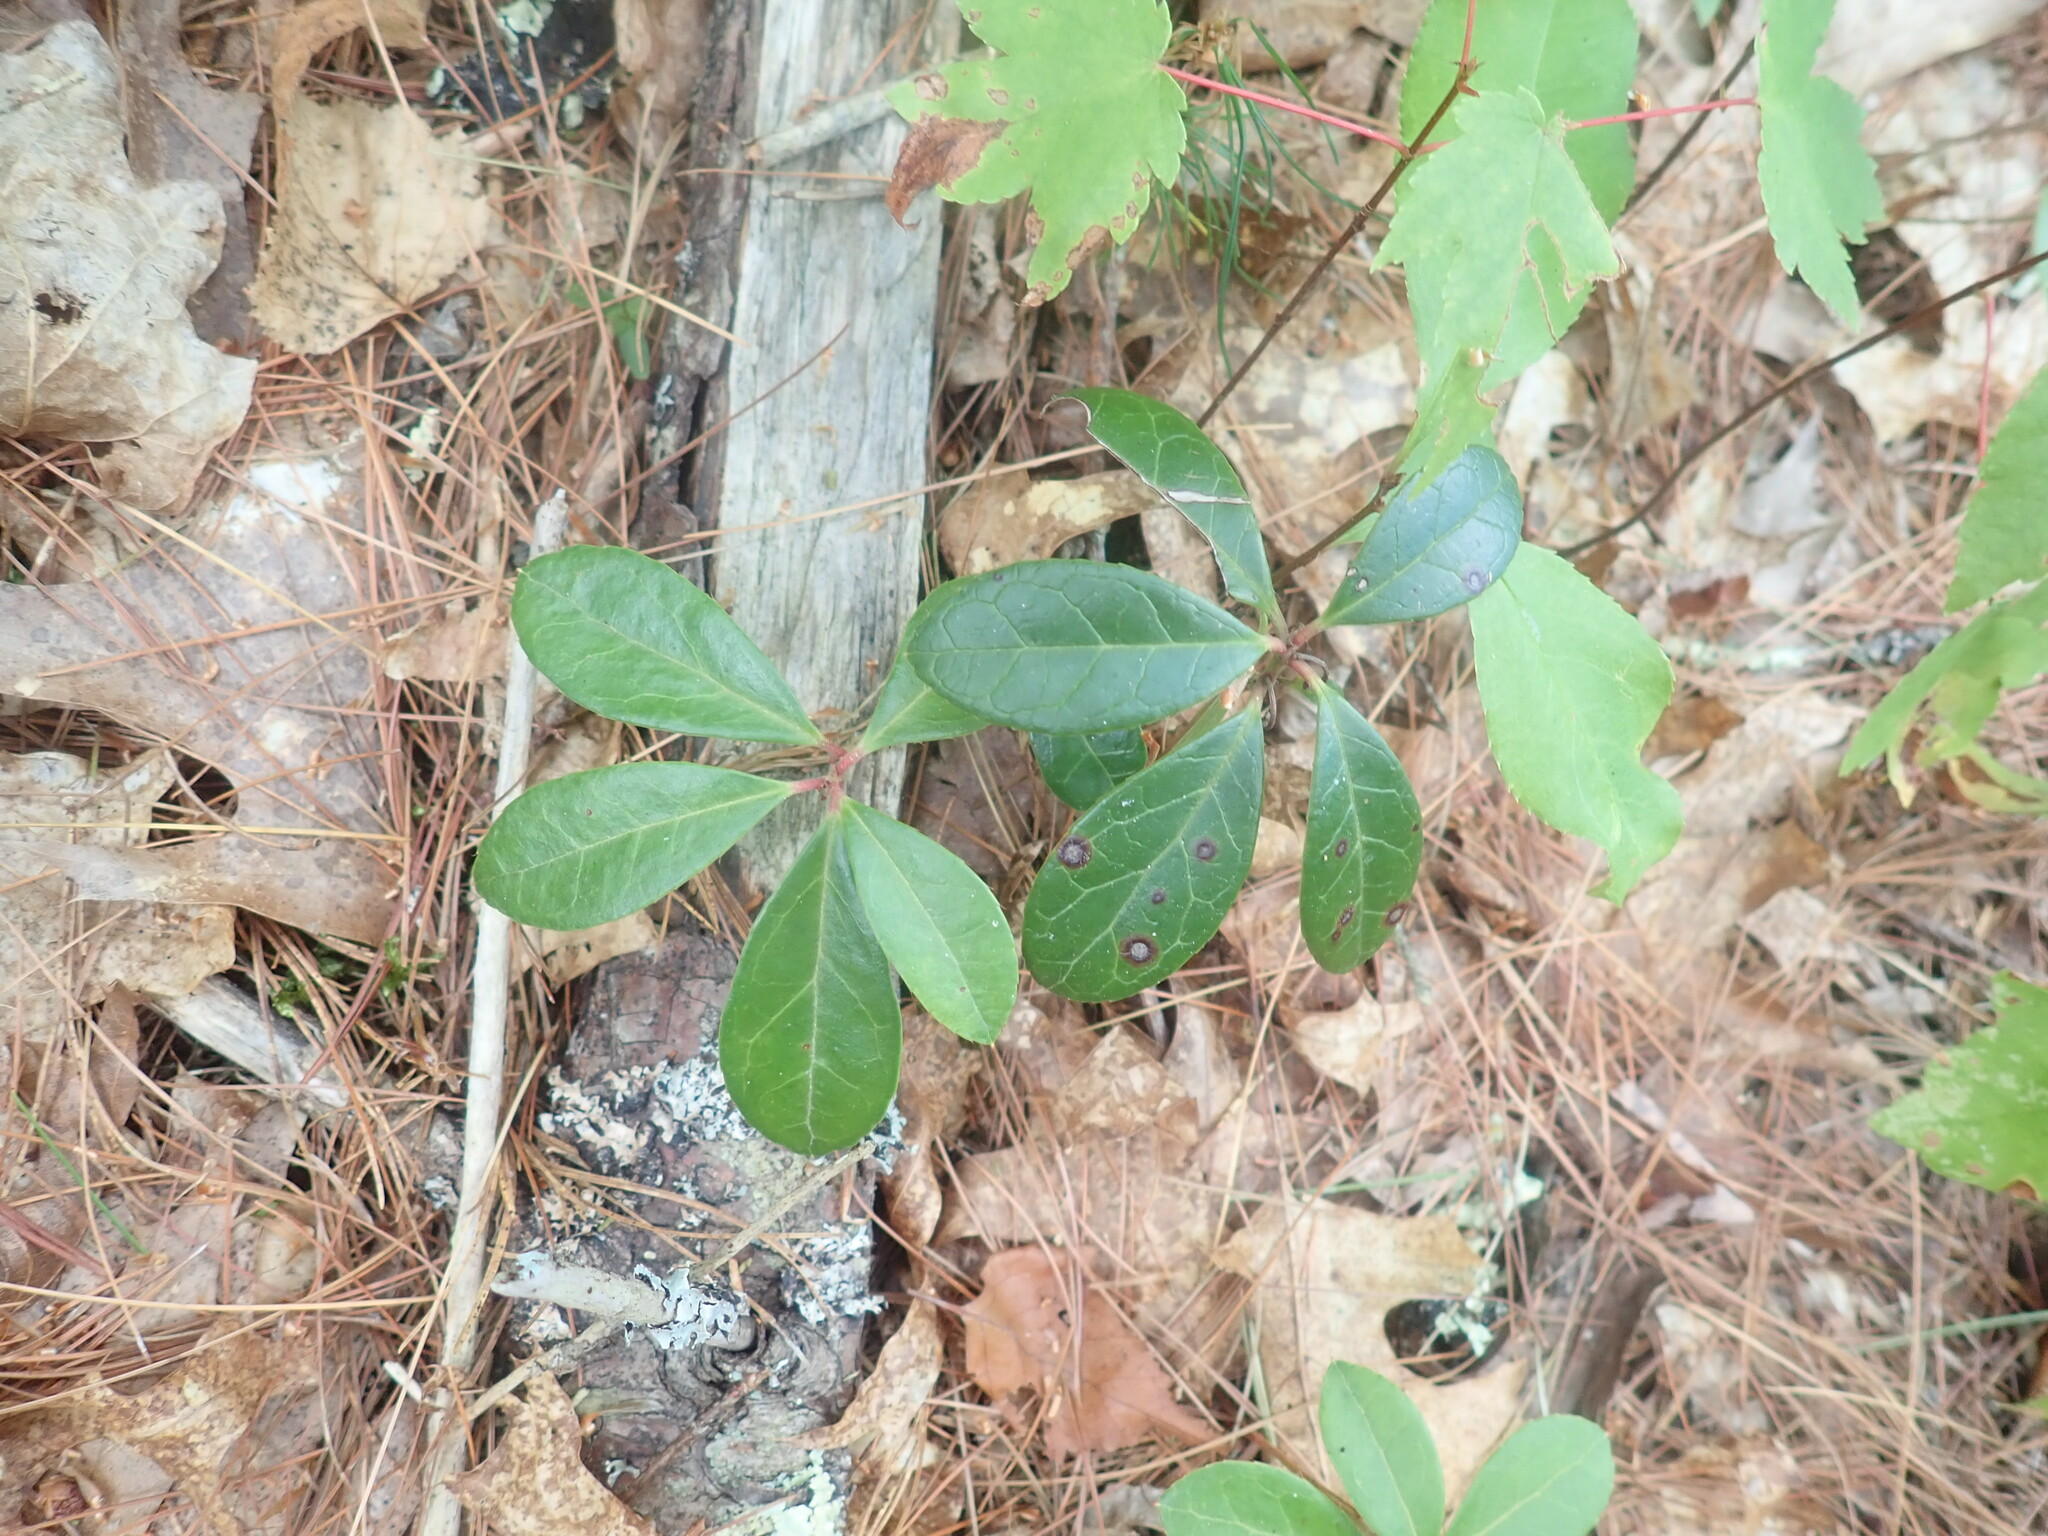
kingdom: Plantae
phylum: Tracheophyta
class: Magnoliopsida
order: Ericales
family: Ericaceae
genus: Gaultheria
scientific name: Gaultheria procumbens
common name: Checkerberry
